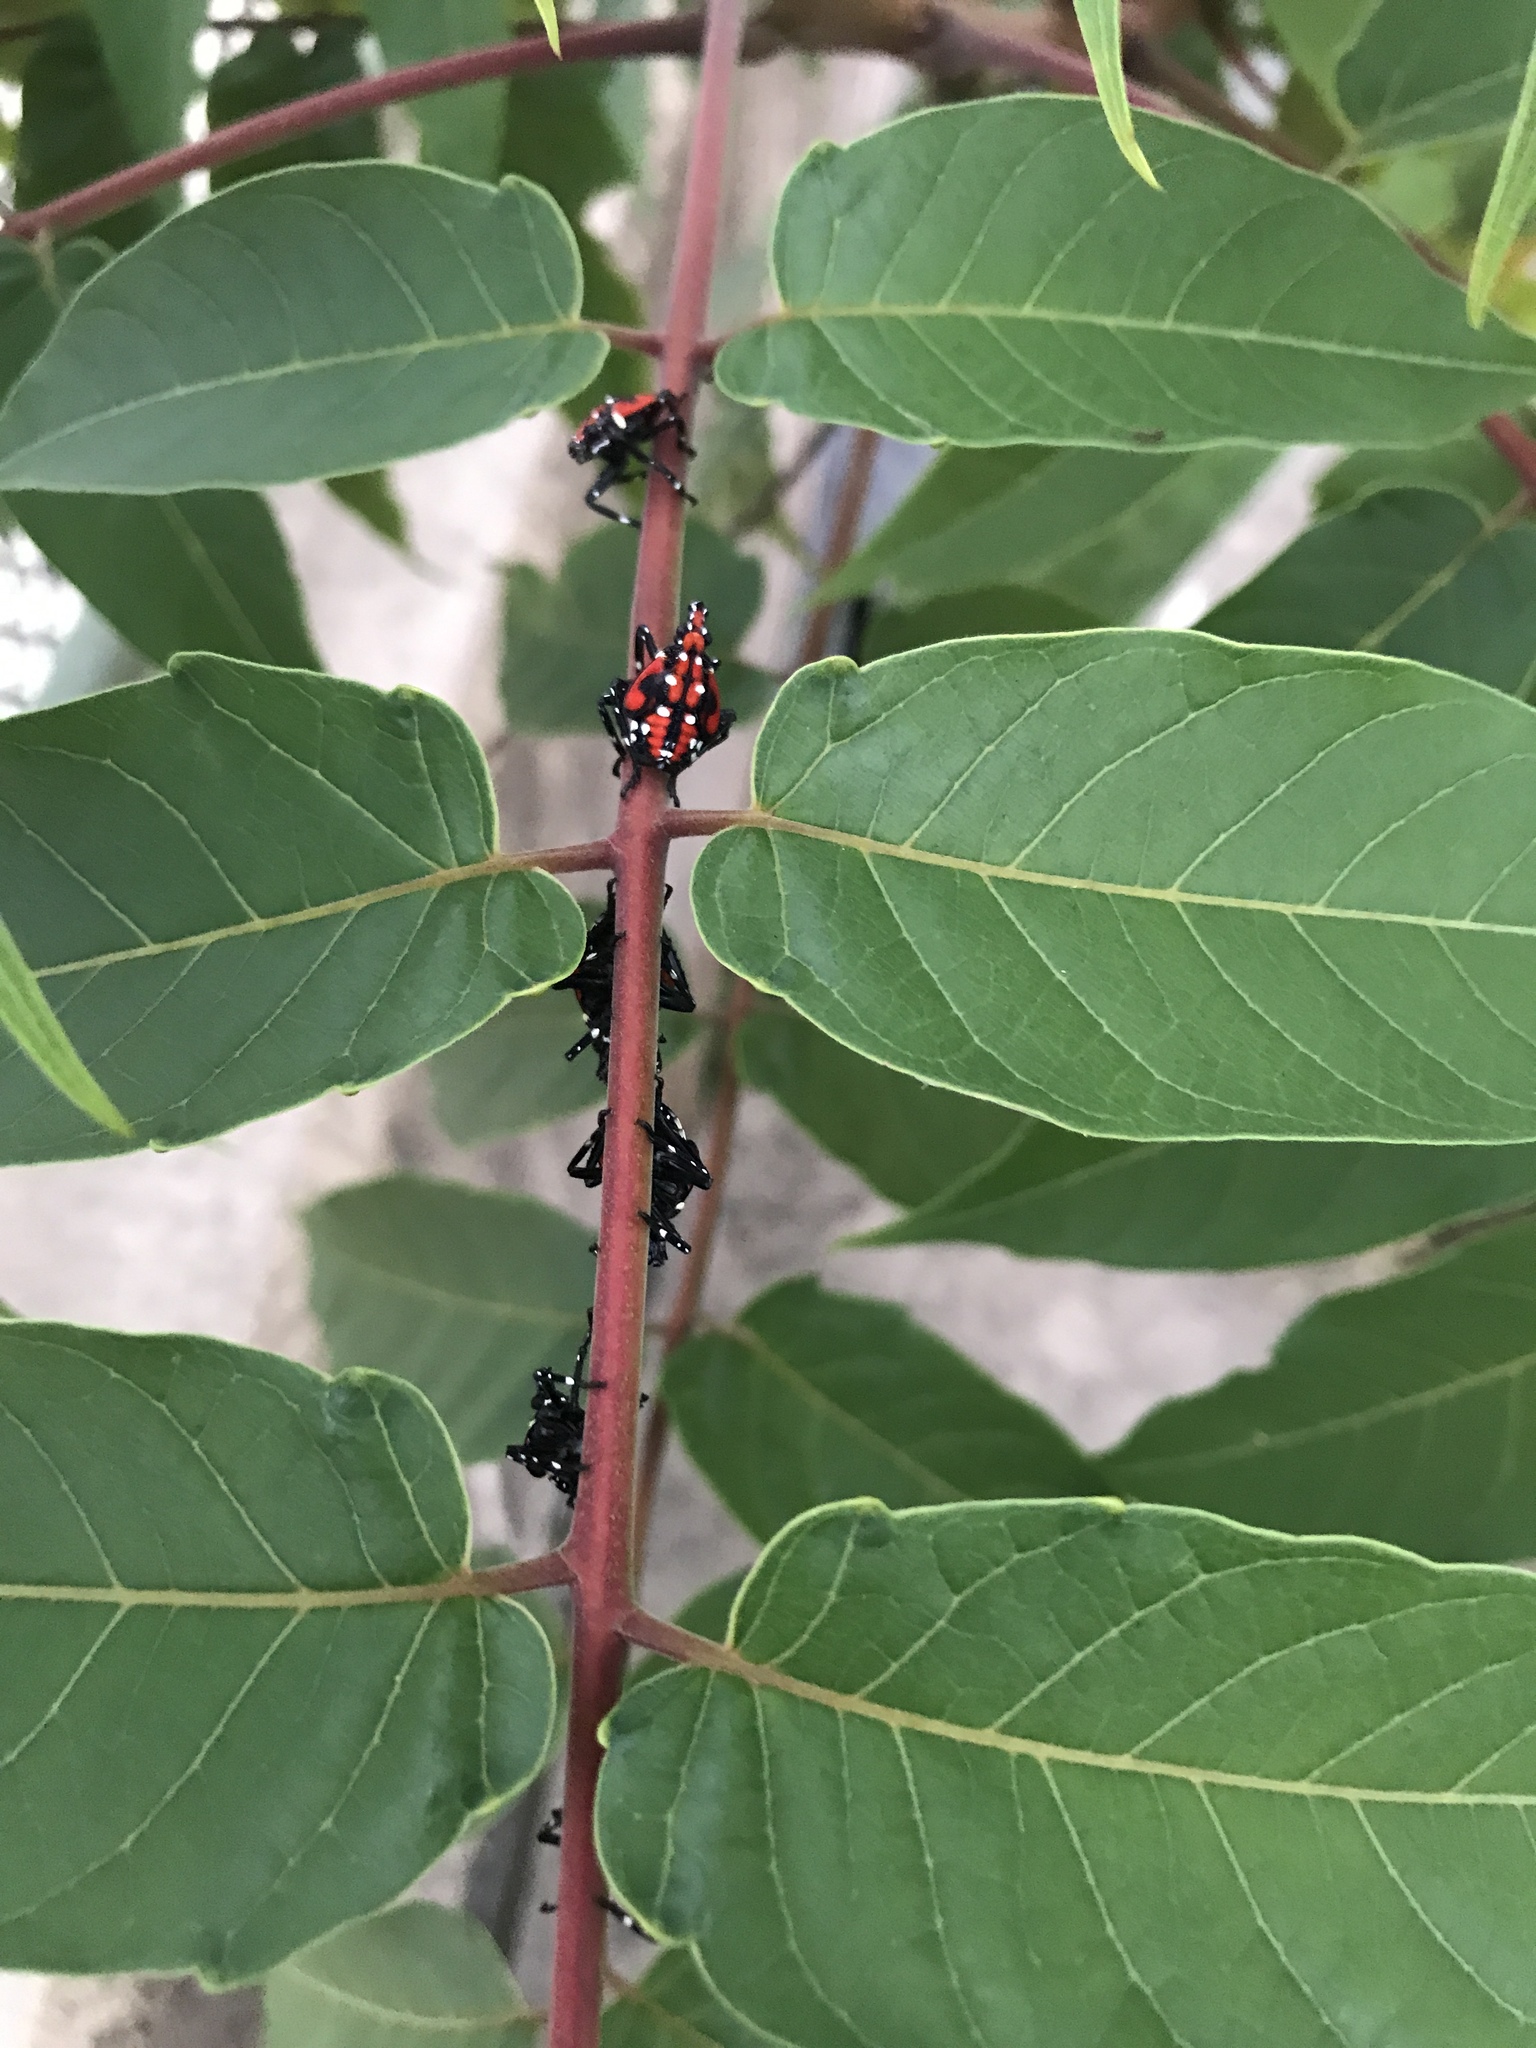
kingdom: Animalia
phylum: Arthropoda
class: Insecta
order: Hemiptera
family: Fulgoridae
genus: Lycorma
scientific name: Lycorma delicatula
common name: Spotted lanternfly
